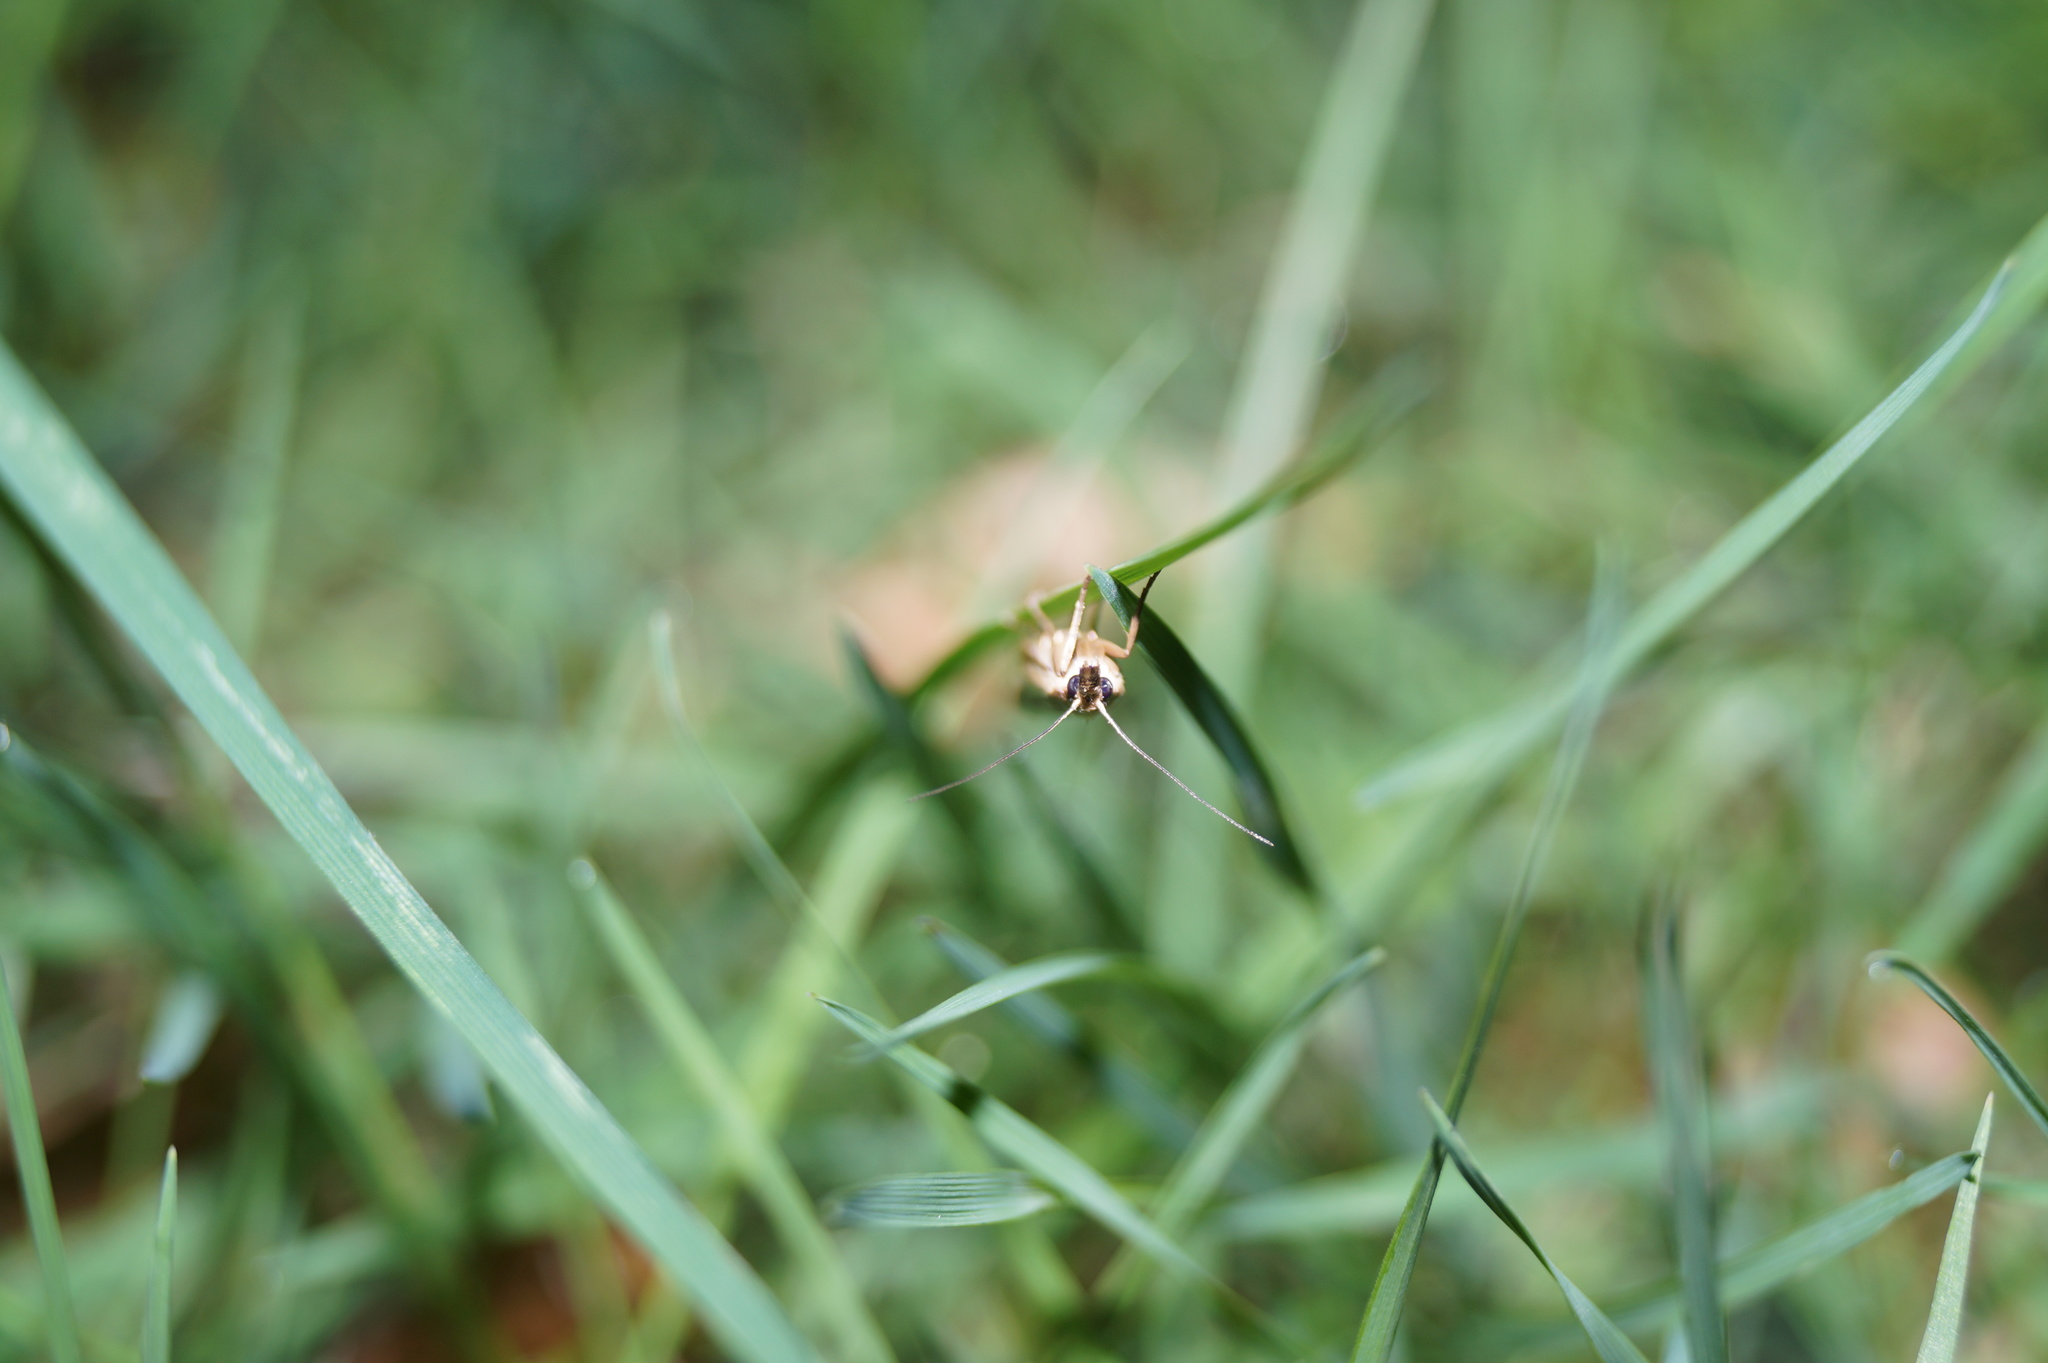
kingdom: Animalia
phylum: Arthropoda
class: Insecta
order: Lepidoptera
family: Crambidae
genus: Crambus
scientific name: Crambus pascuella
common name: Inlaid grass-veneer
